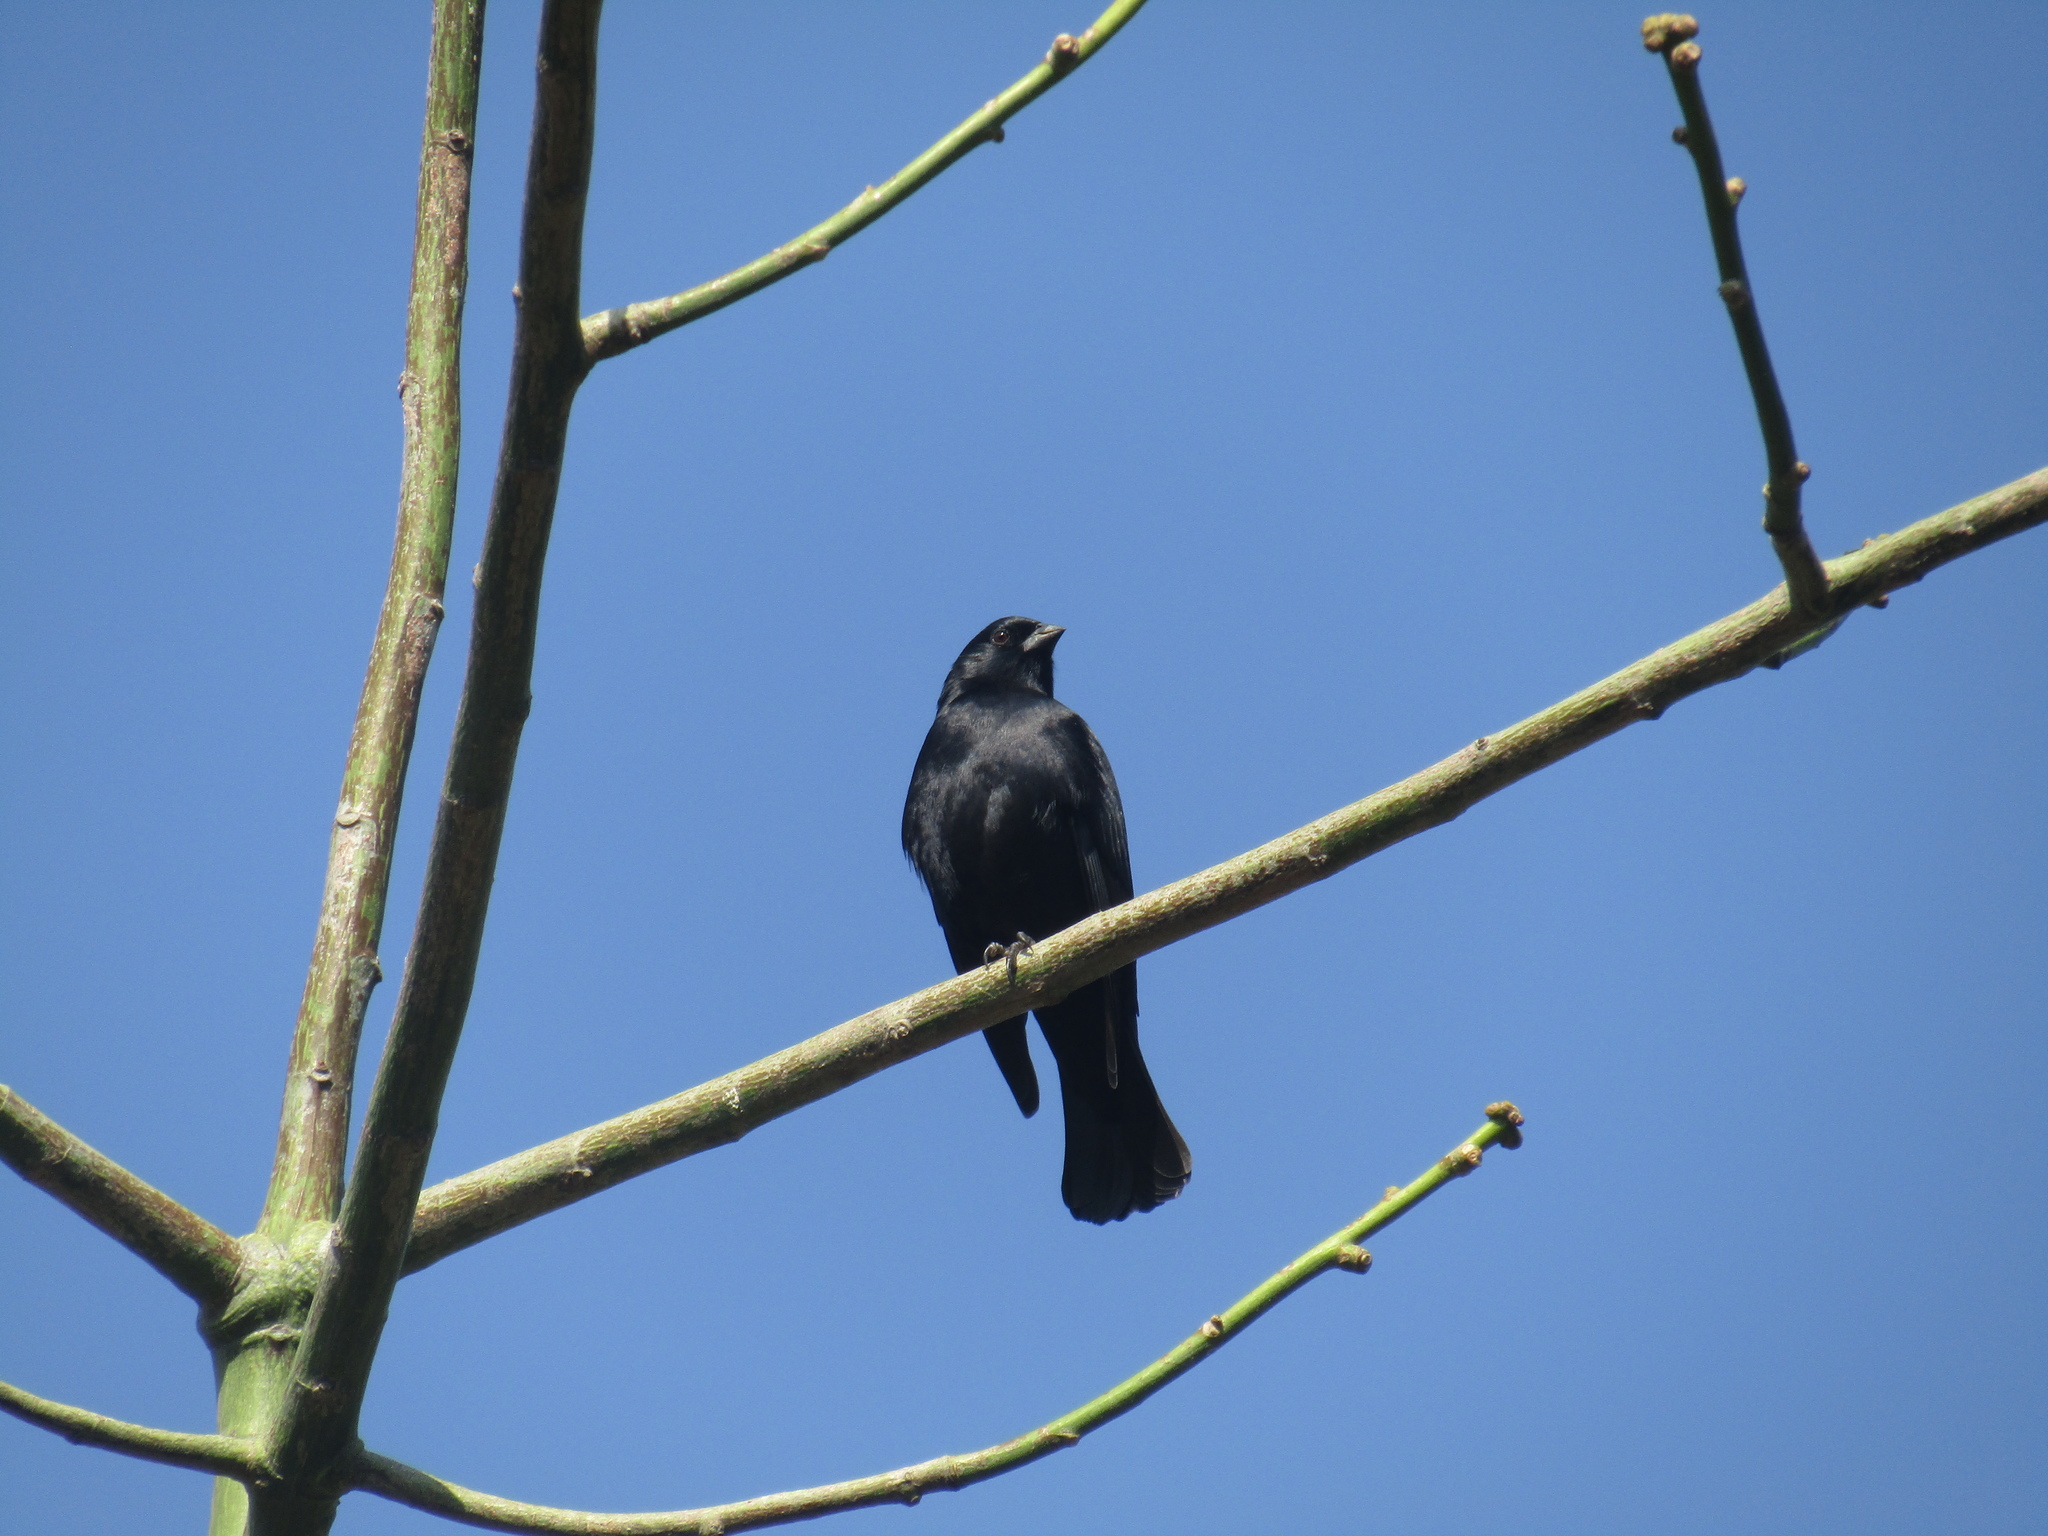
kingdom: Animalia
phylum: Chordata
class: Aves
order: Passeriformes
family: Icteridae
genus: Molothrus
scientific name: Molothrus bonariensis
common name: Shiny cowbird
